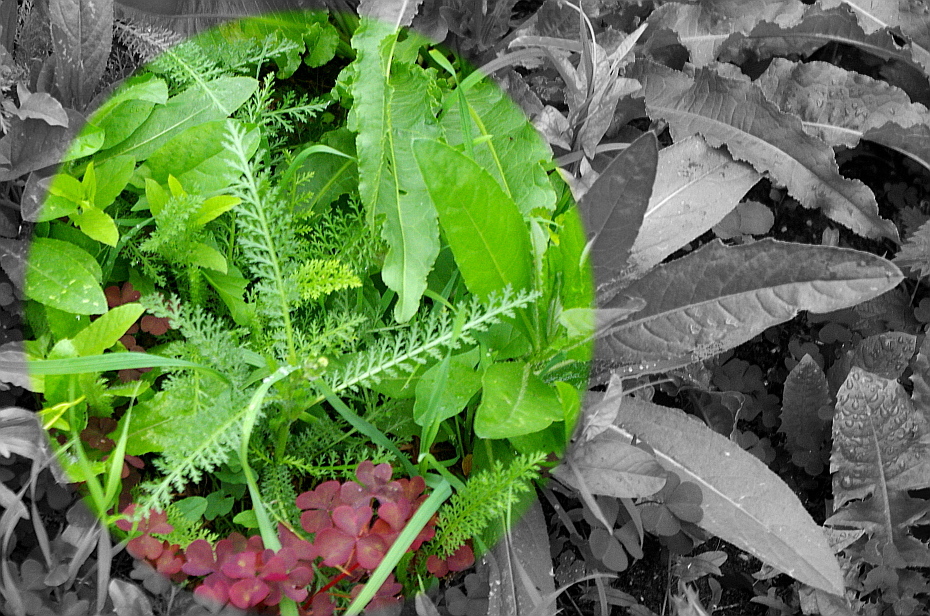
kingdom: Plantae
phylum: Tracheophyta
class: Magnoliopsida
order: Asterales
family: Asteraceae
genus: Achillea
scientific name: Achillea millefolium
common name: Yarrow
